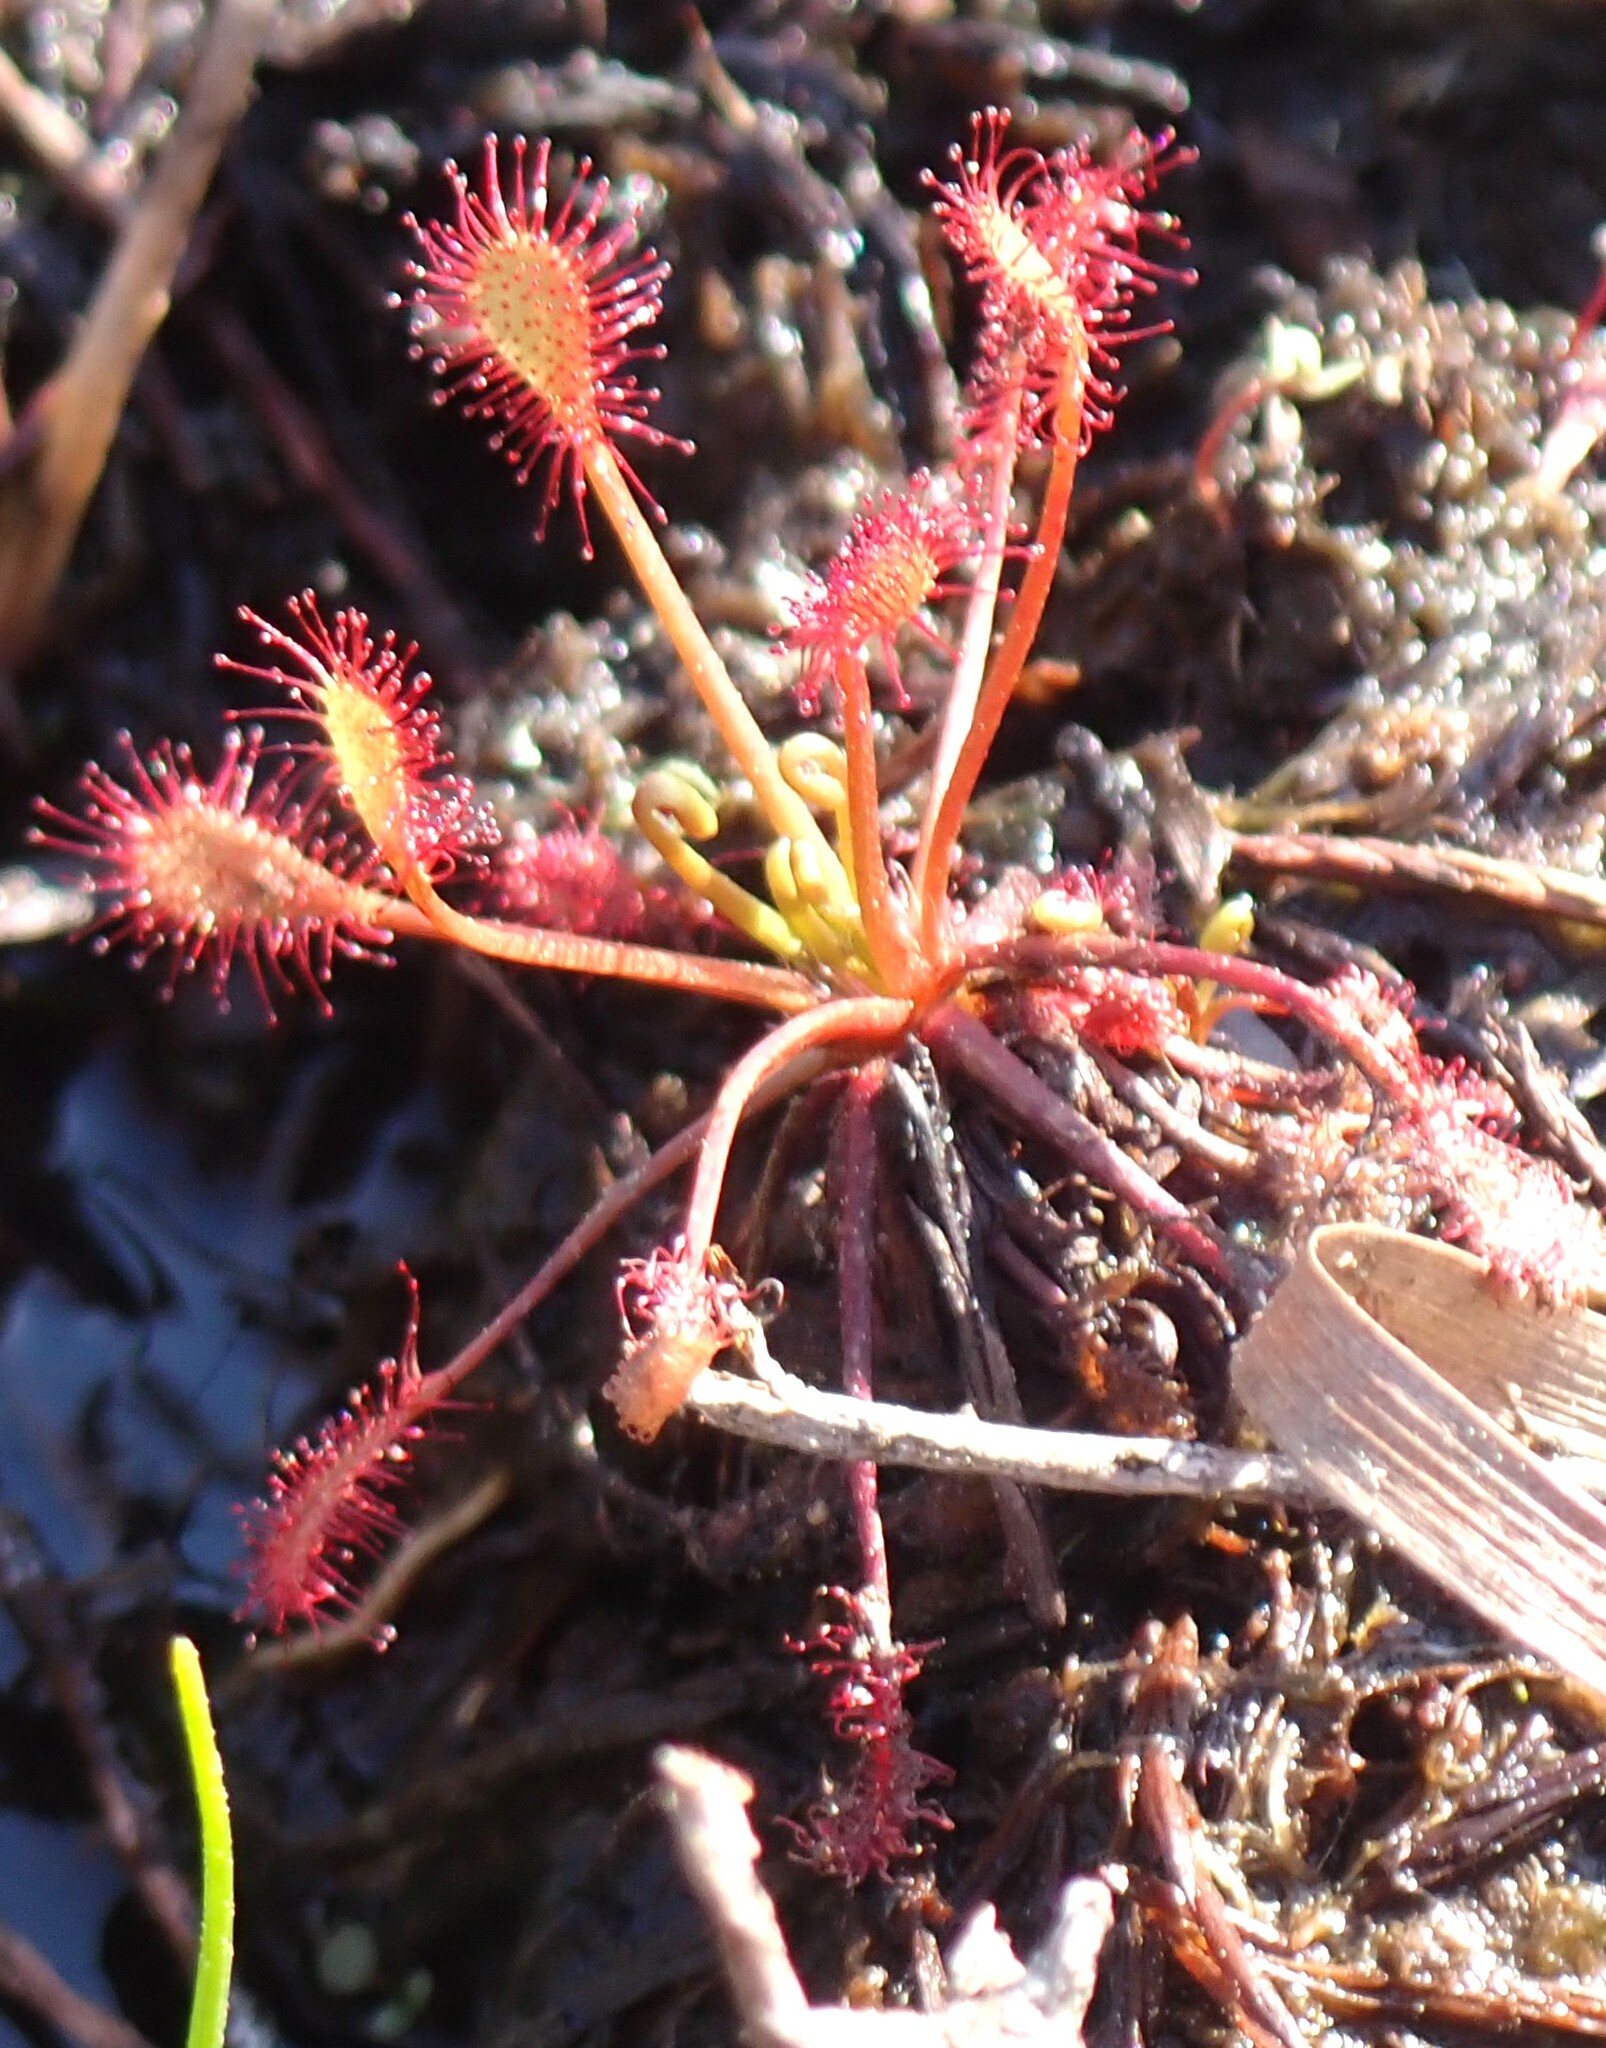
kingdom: Plantae
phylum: Tracheophyta
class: Magnoliopsida
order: Caryophyllales
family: Droseraceae
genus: Drosera
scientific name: Drosera intermedia
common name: Oblong-leaved sundew
